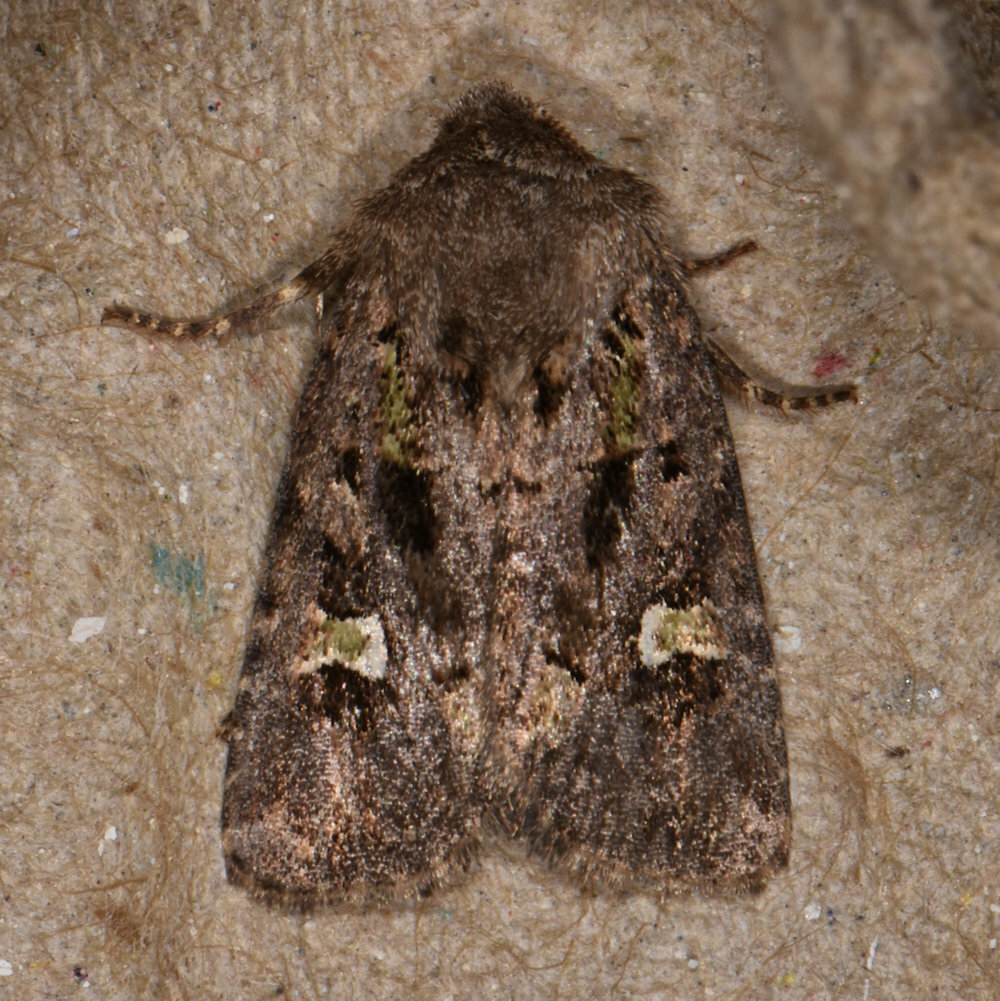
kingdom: Animalia
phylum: Arthropoda
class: Insecta
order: Lepidoptera
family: Noctuidae
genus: Lacinipolia
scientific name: Lacinipolia renigera
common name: Kidney-spotted minor
